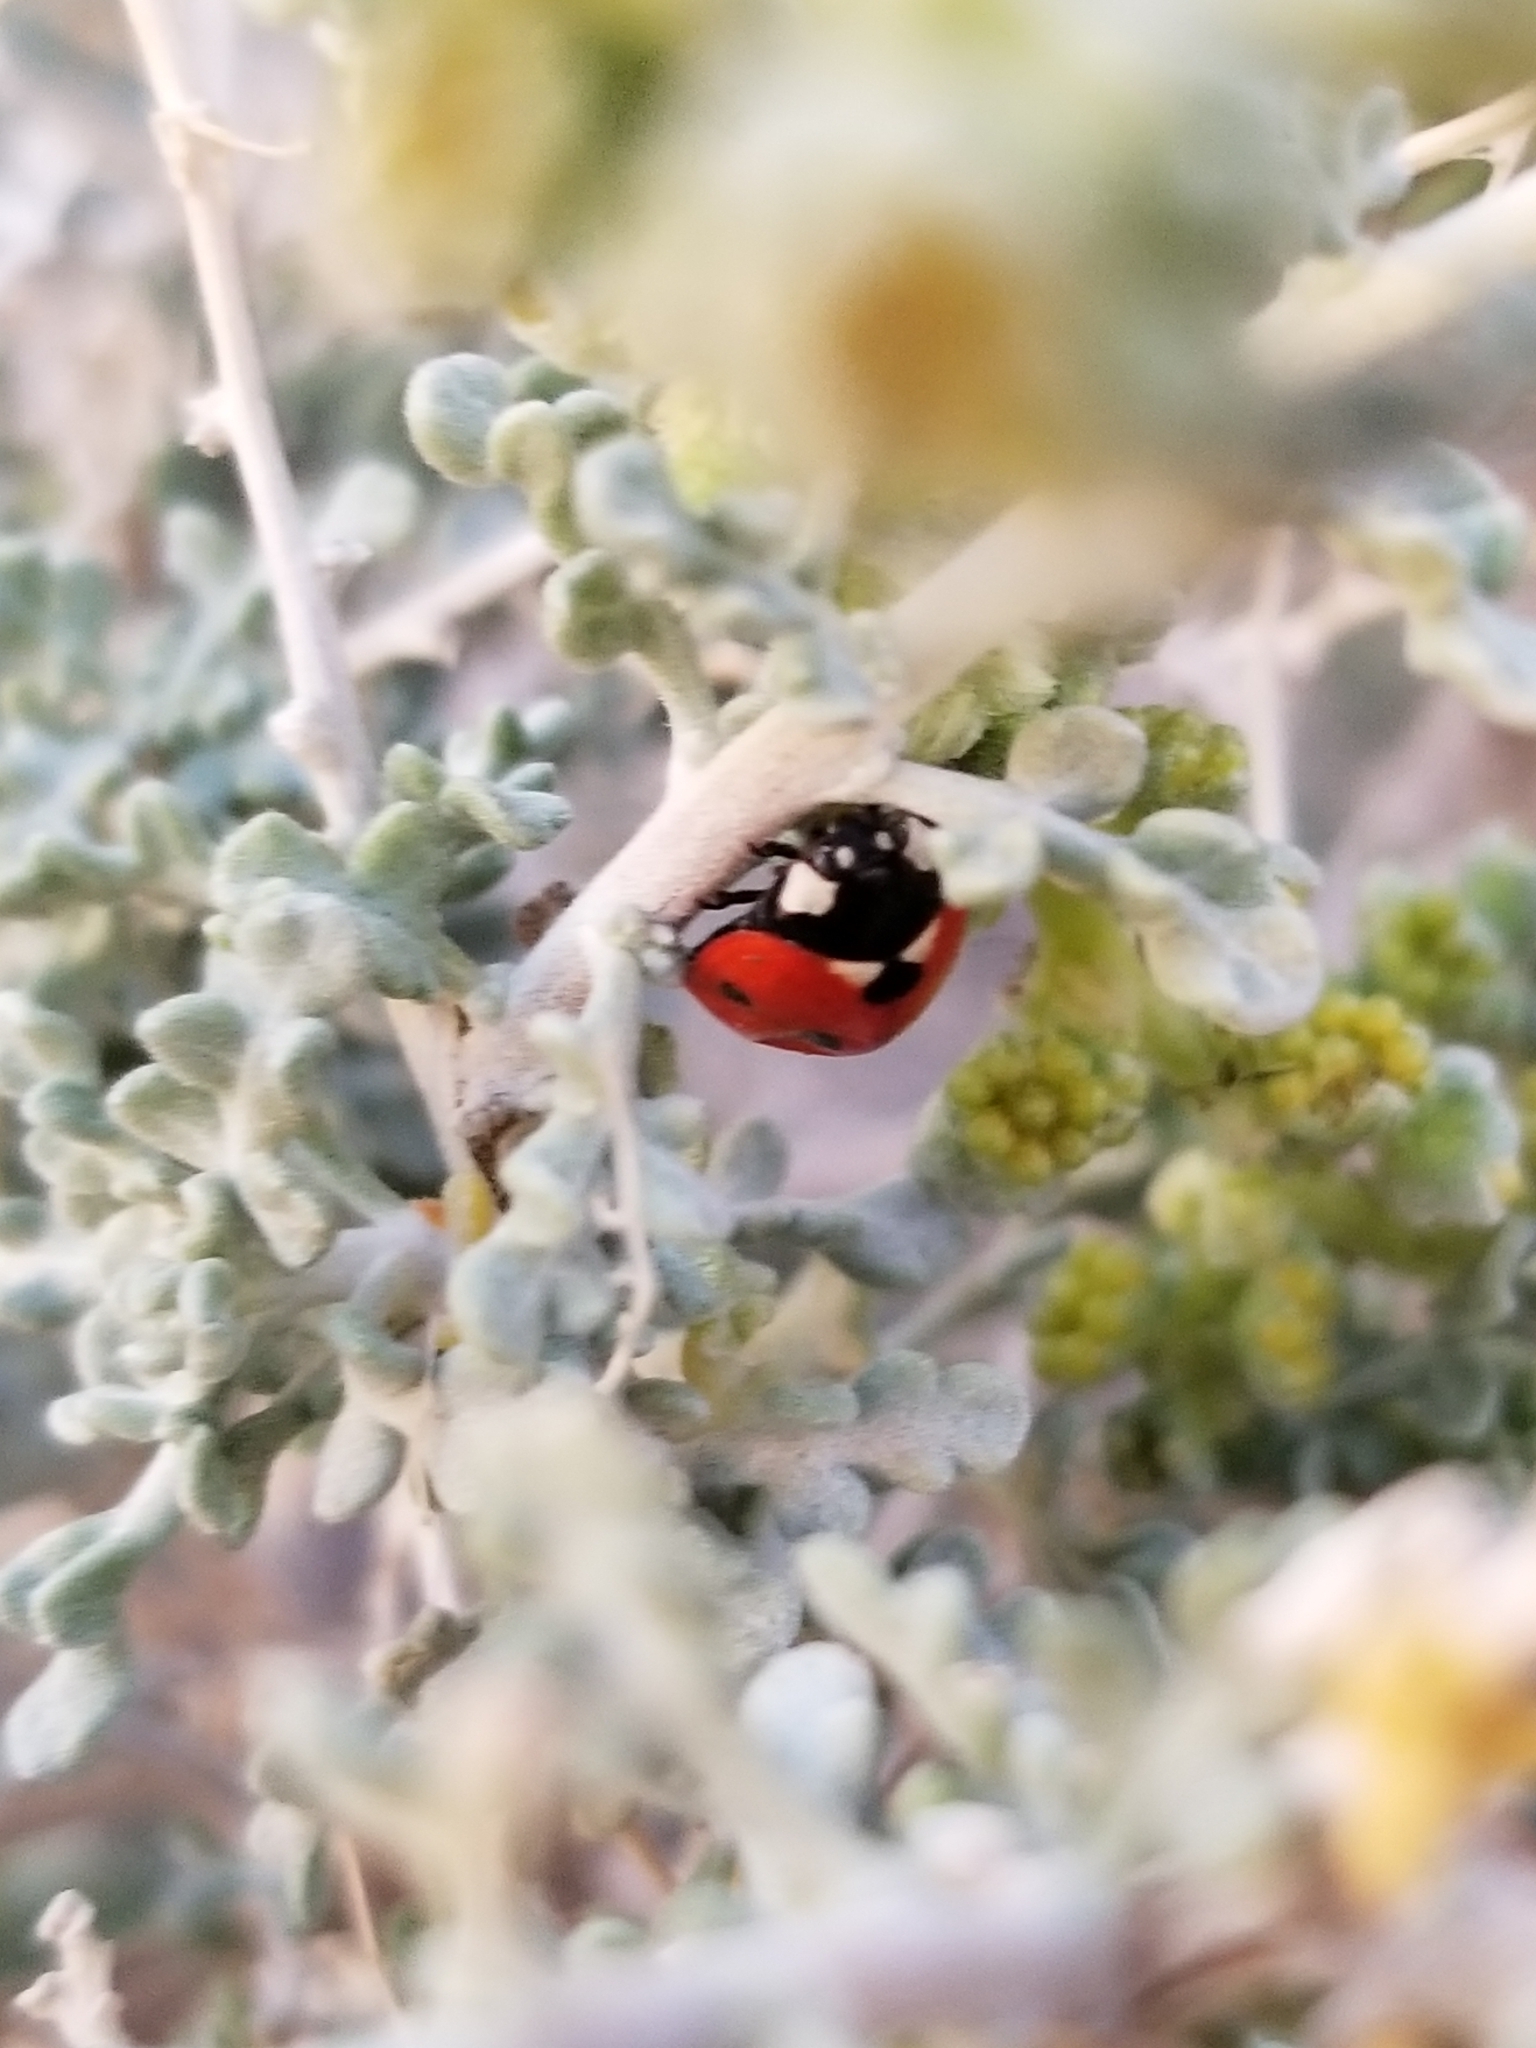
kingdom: Animalia
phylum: Arthropoda
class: Insecta
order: Coleoptera
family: Coccinellidae
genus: Coccinella
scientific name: Coccinella septempunctata
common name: Sevenspotted lady beetle
